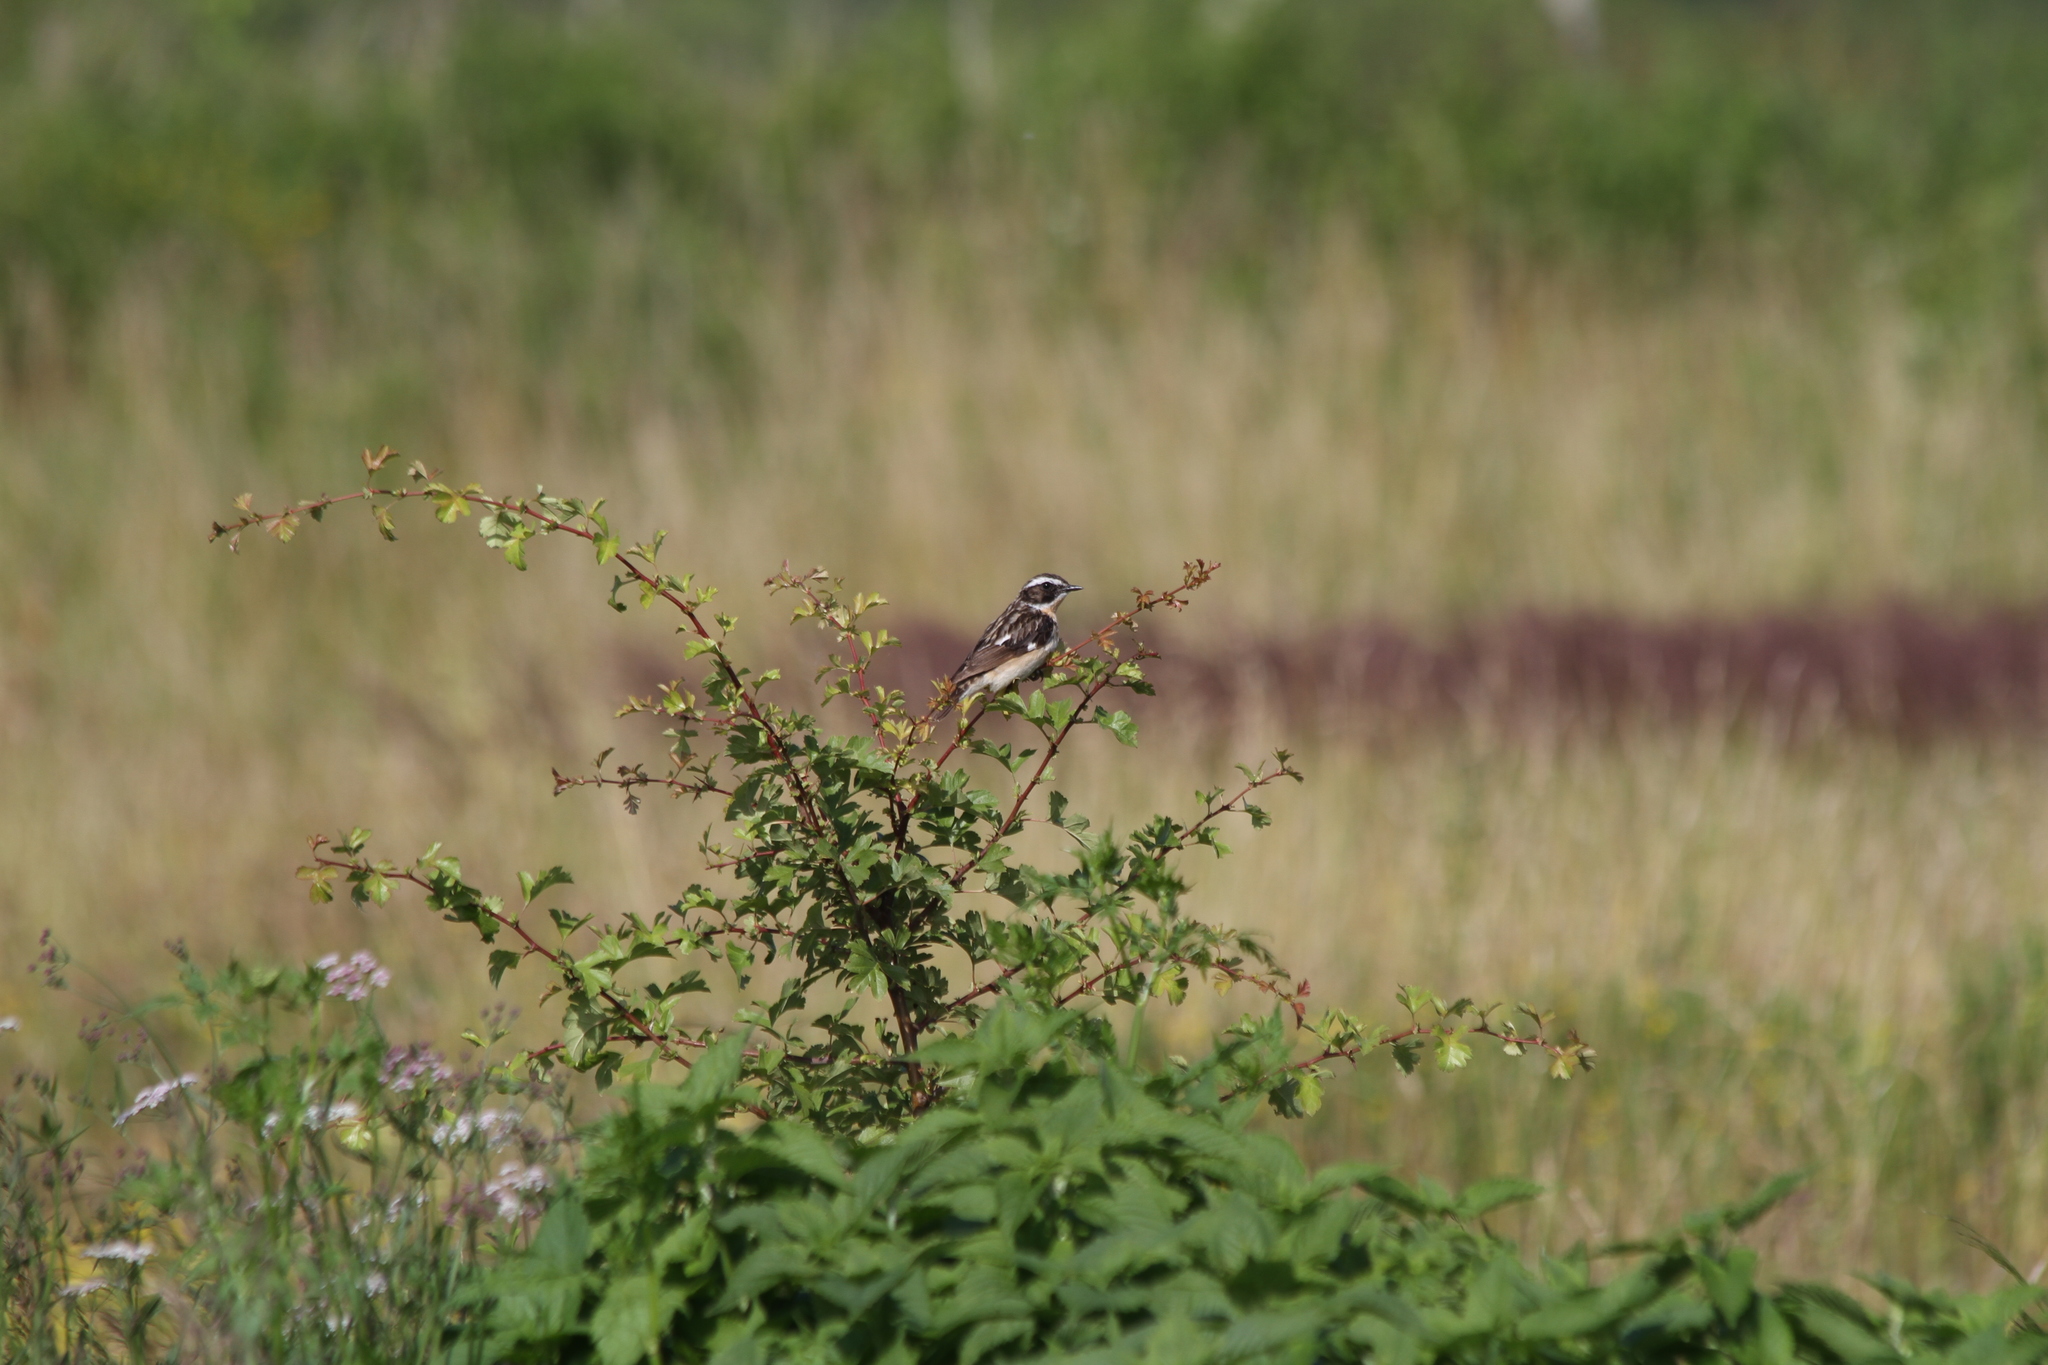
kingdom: Animalia
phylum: Chordata
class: Aves
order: Passeriformes
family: Muscicapidae
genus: Saxicola
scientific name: Saxicola rubetra
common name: Whinchat
